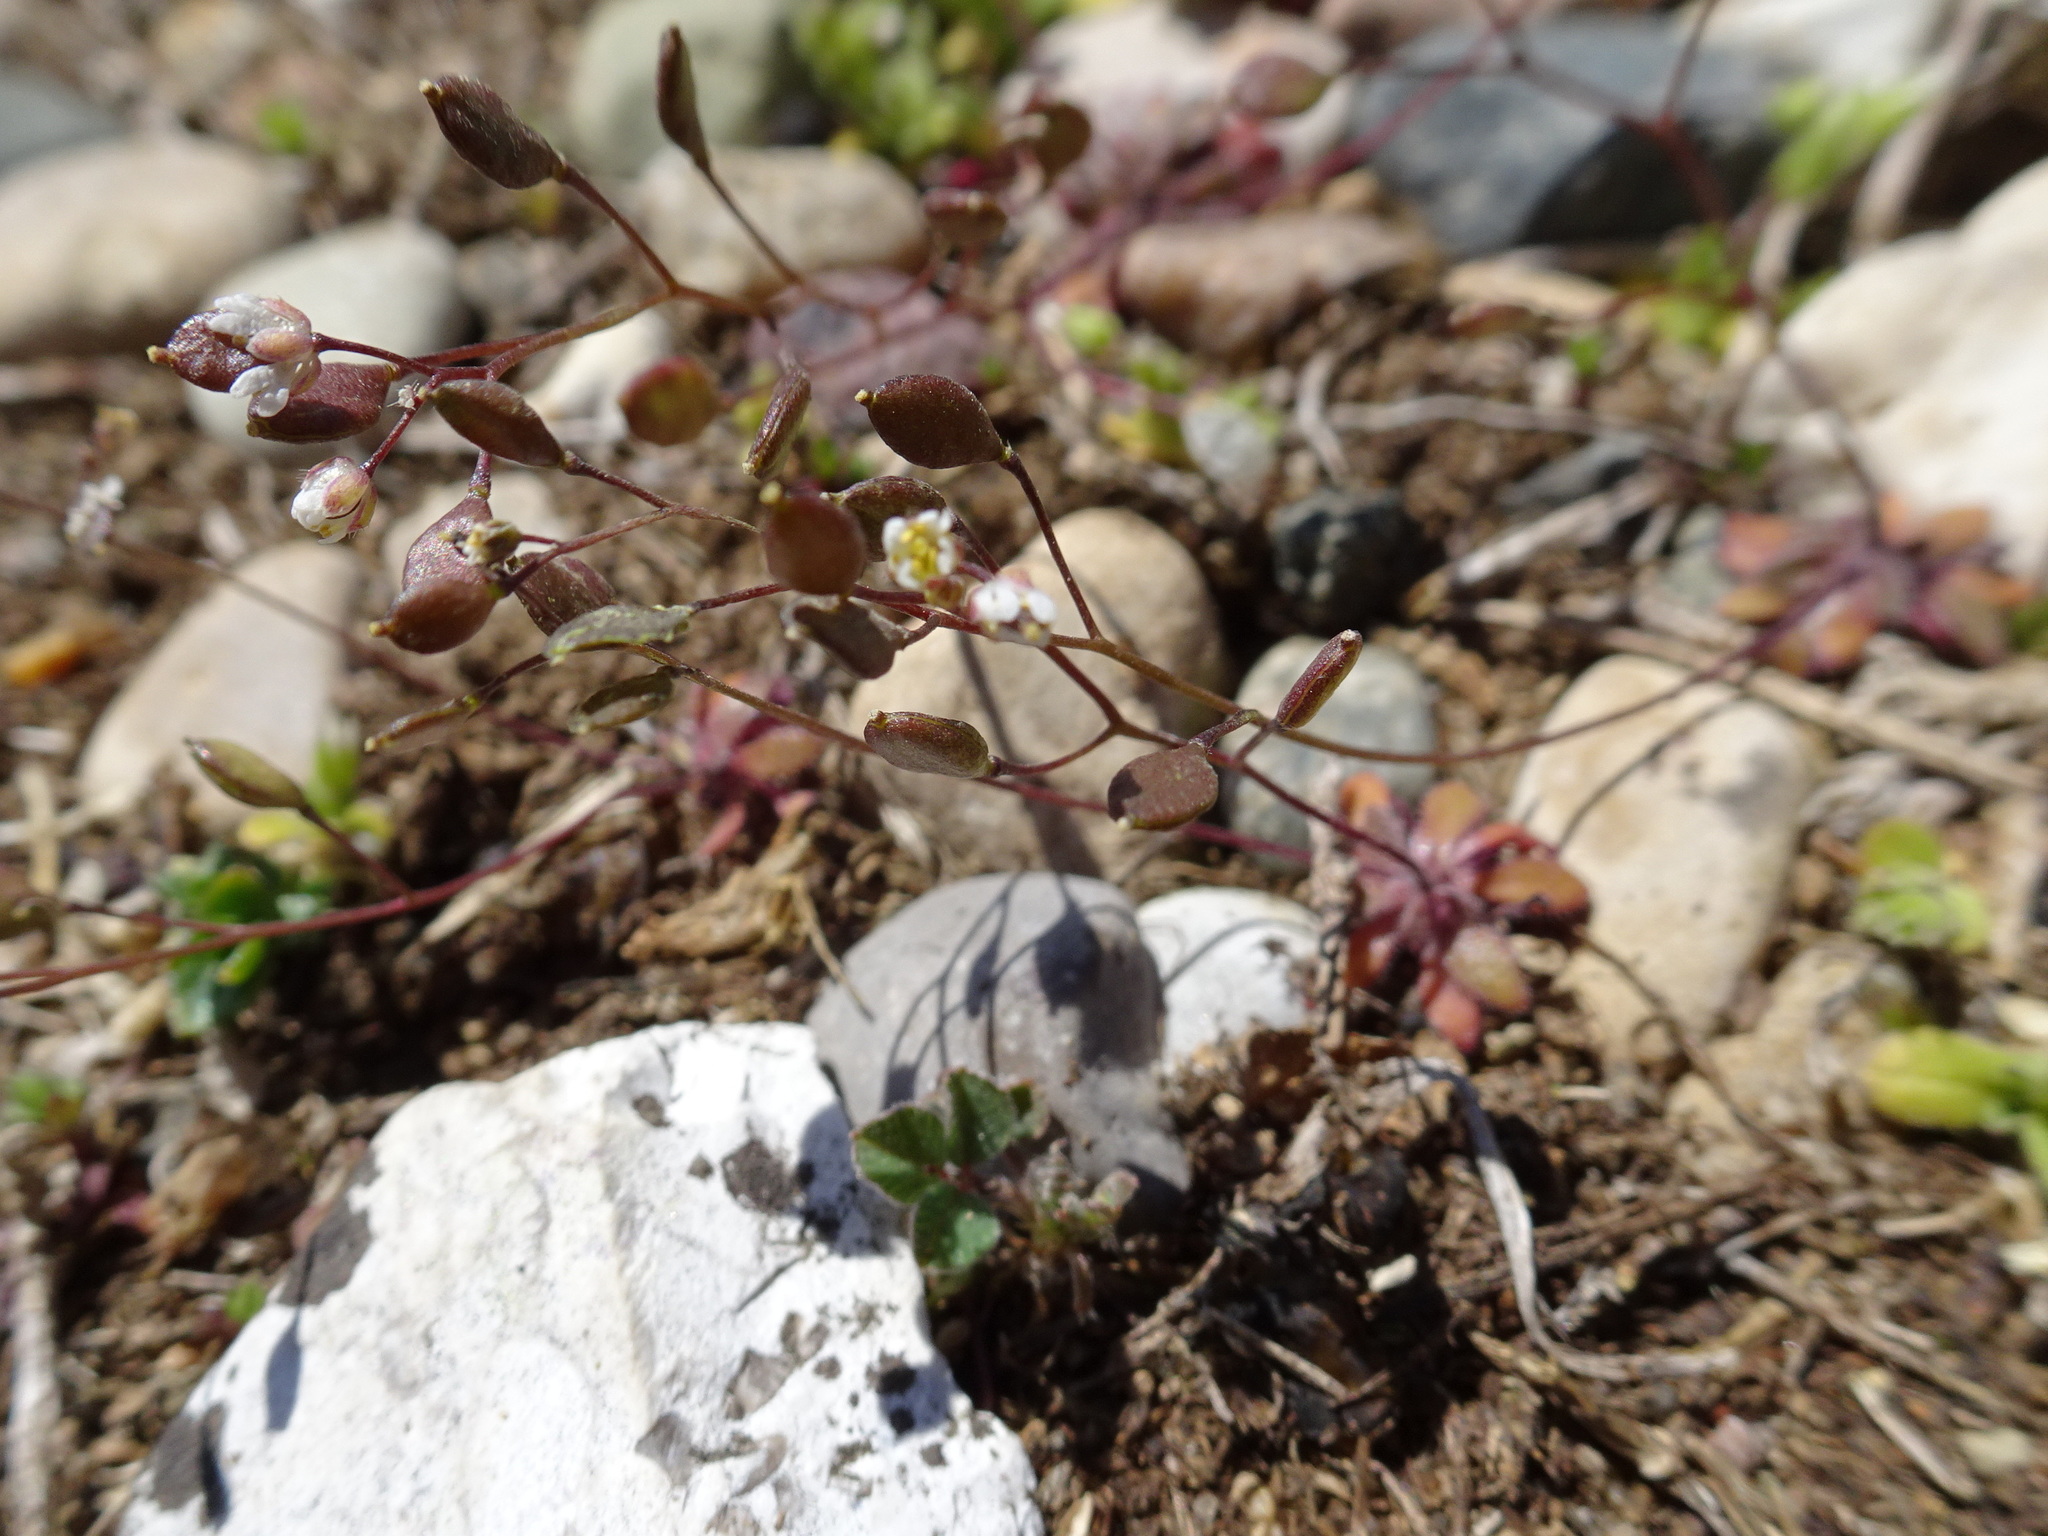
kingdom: Plantae
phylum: Tracheophyta
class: Magnoliopsida
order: Brassicales
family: Brassicaceae
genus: Draba
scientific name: Draba verna
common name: Spring draba
